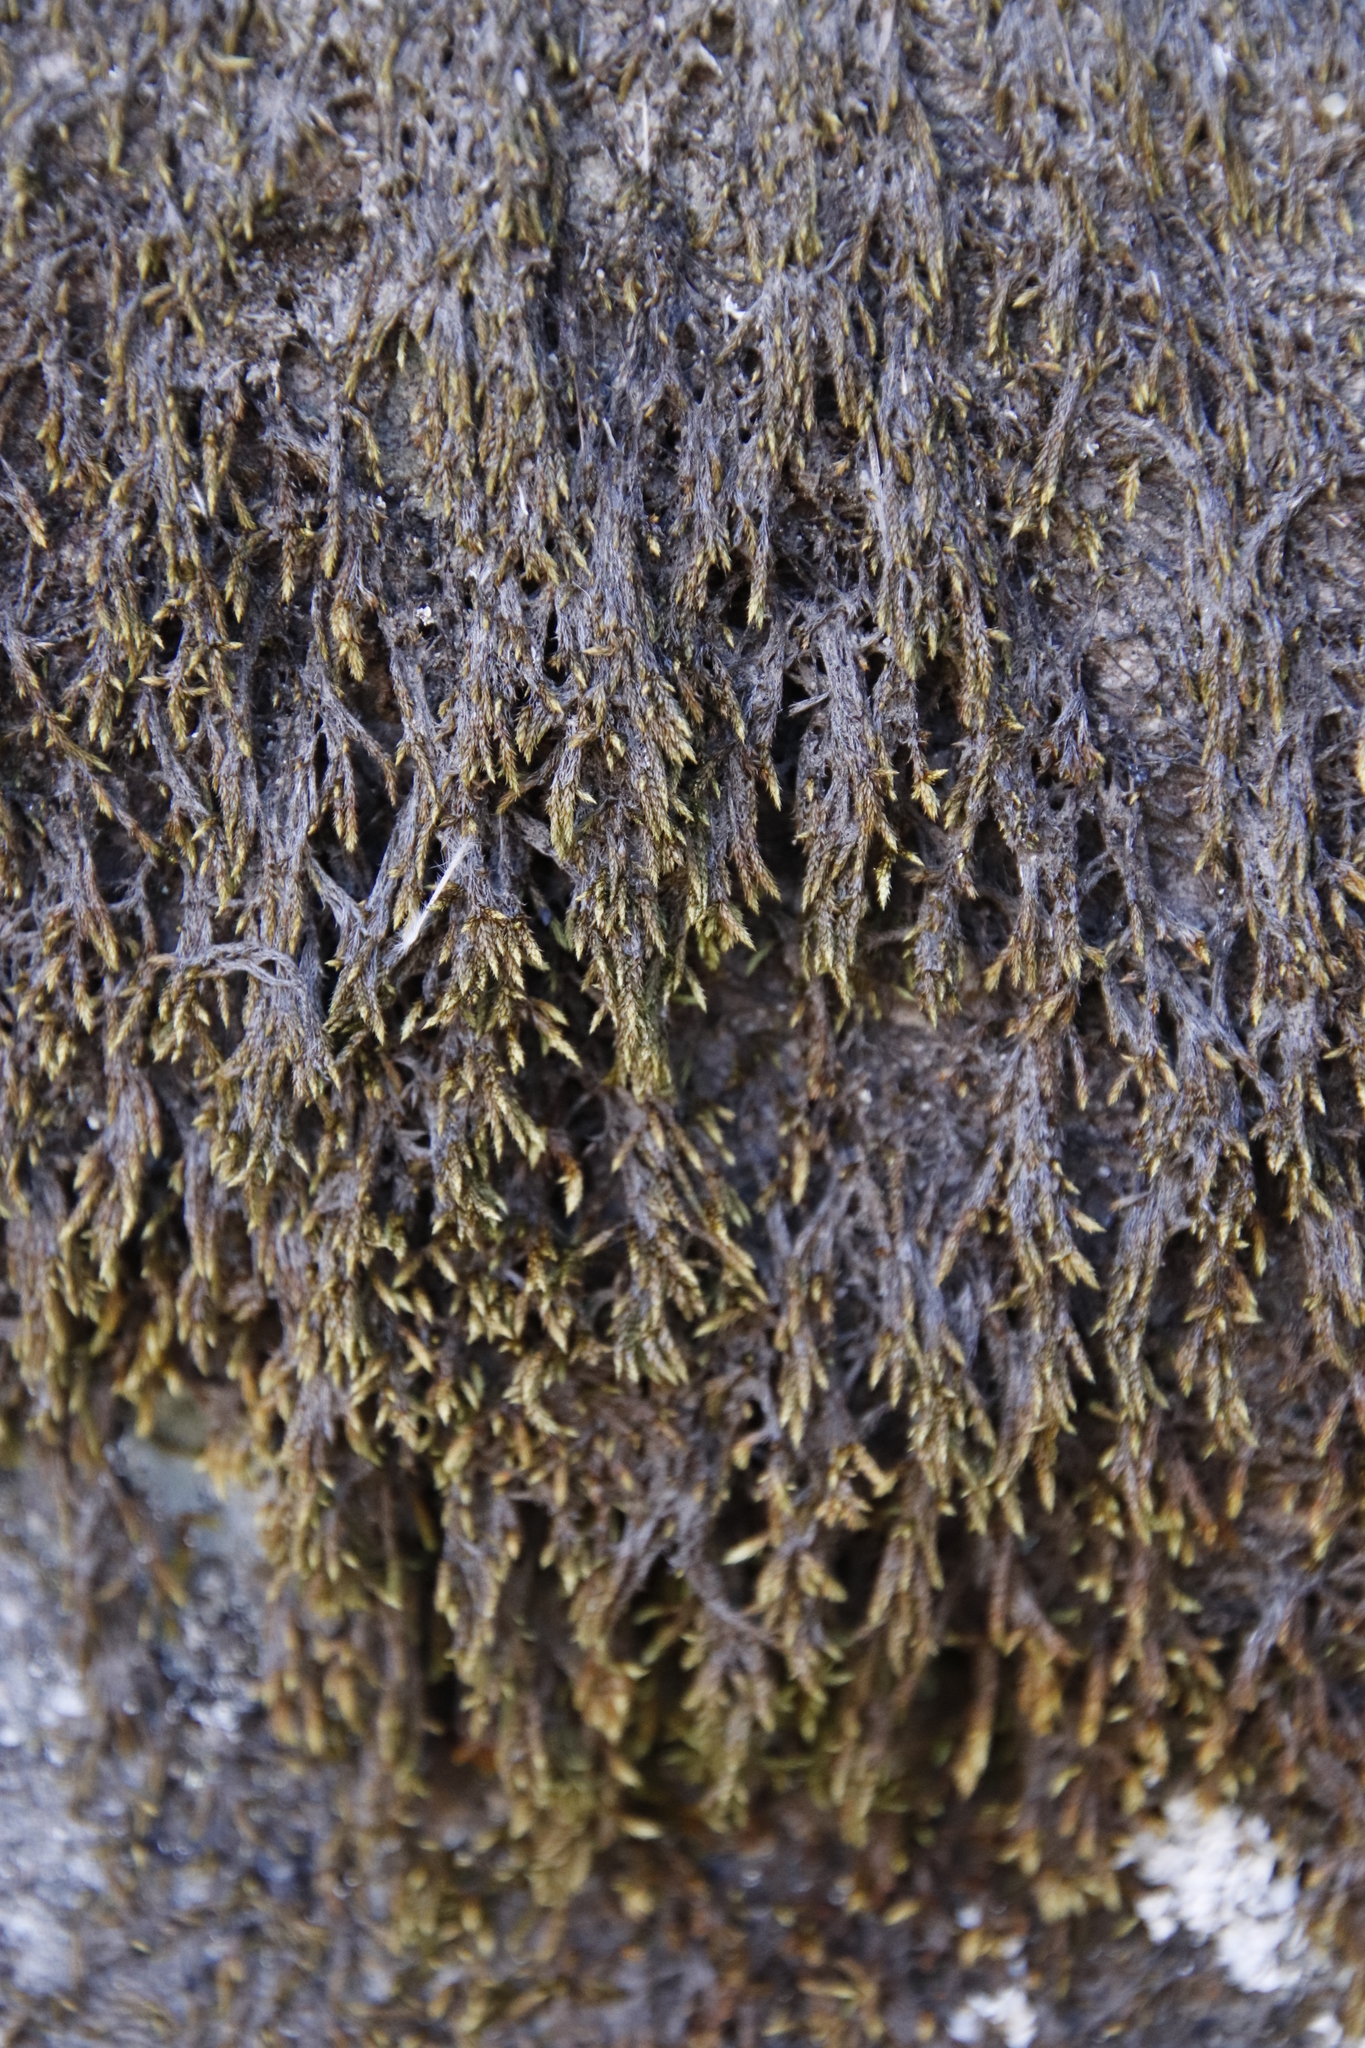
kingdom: Plantae
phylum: Bryophyta
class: Bryopsida
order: Hedwigiales
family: Hedwigiaceae
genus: Rhacocarpus
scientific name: Rhacocarpus purpurascens
